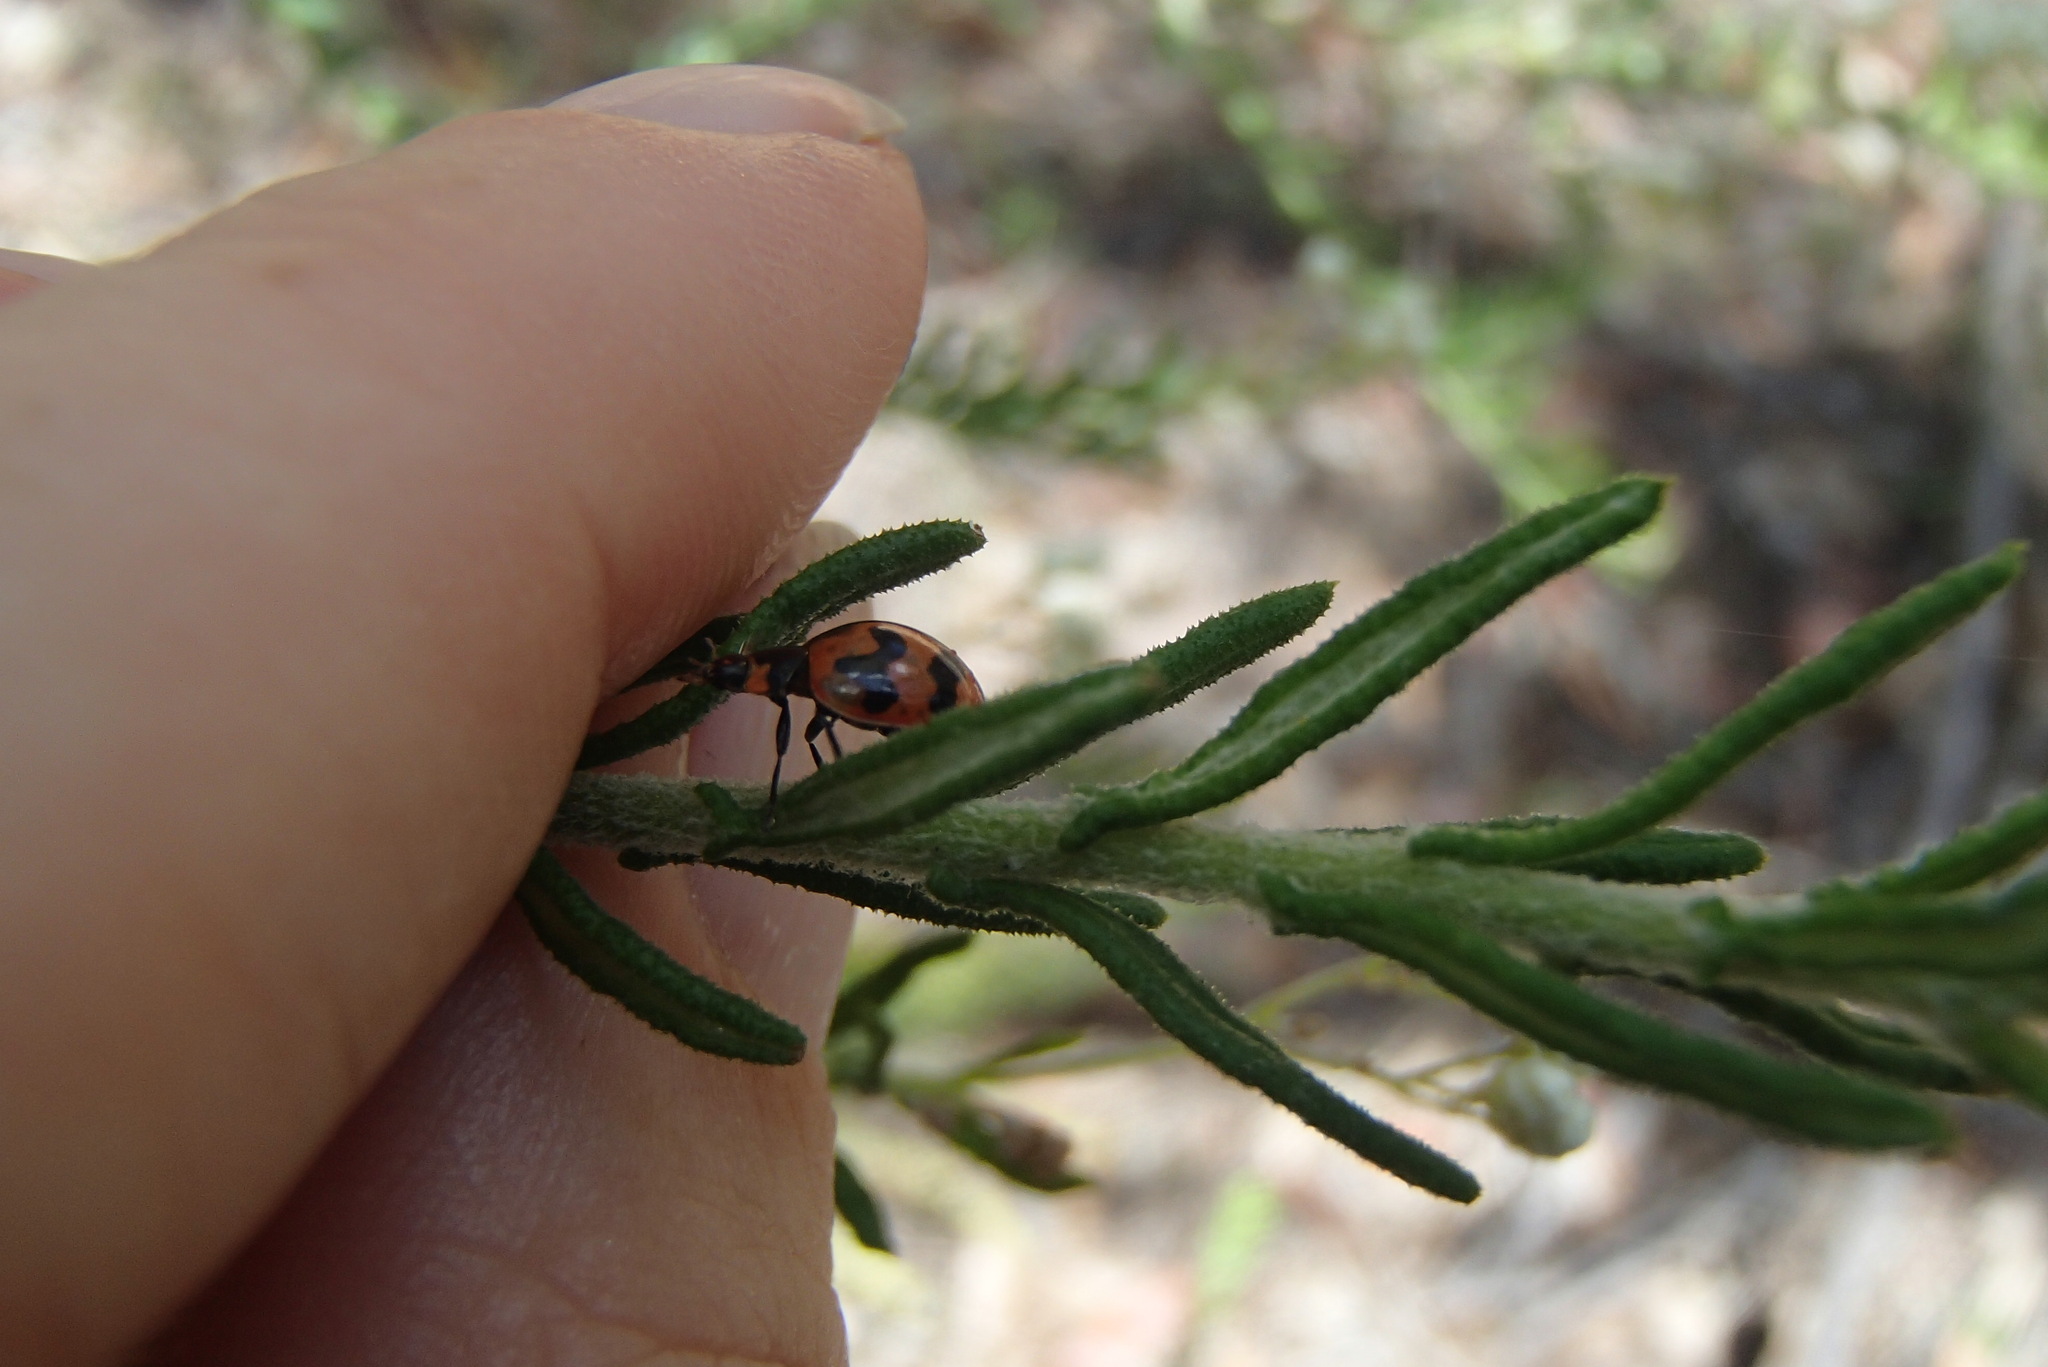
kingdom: Animalia
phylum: Arthropoda
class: Insecta
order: Coleoptera
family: Coccinellidae
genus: Coccinella
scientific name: Coccinella transversalis
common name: Transverse lady beetle
